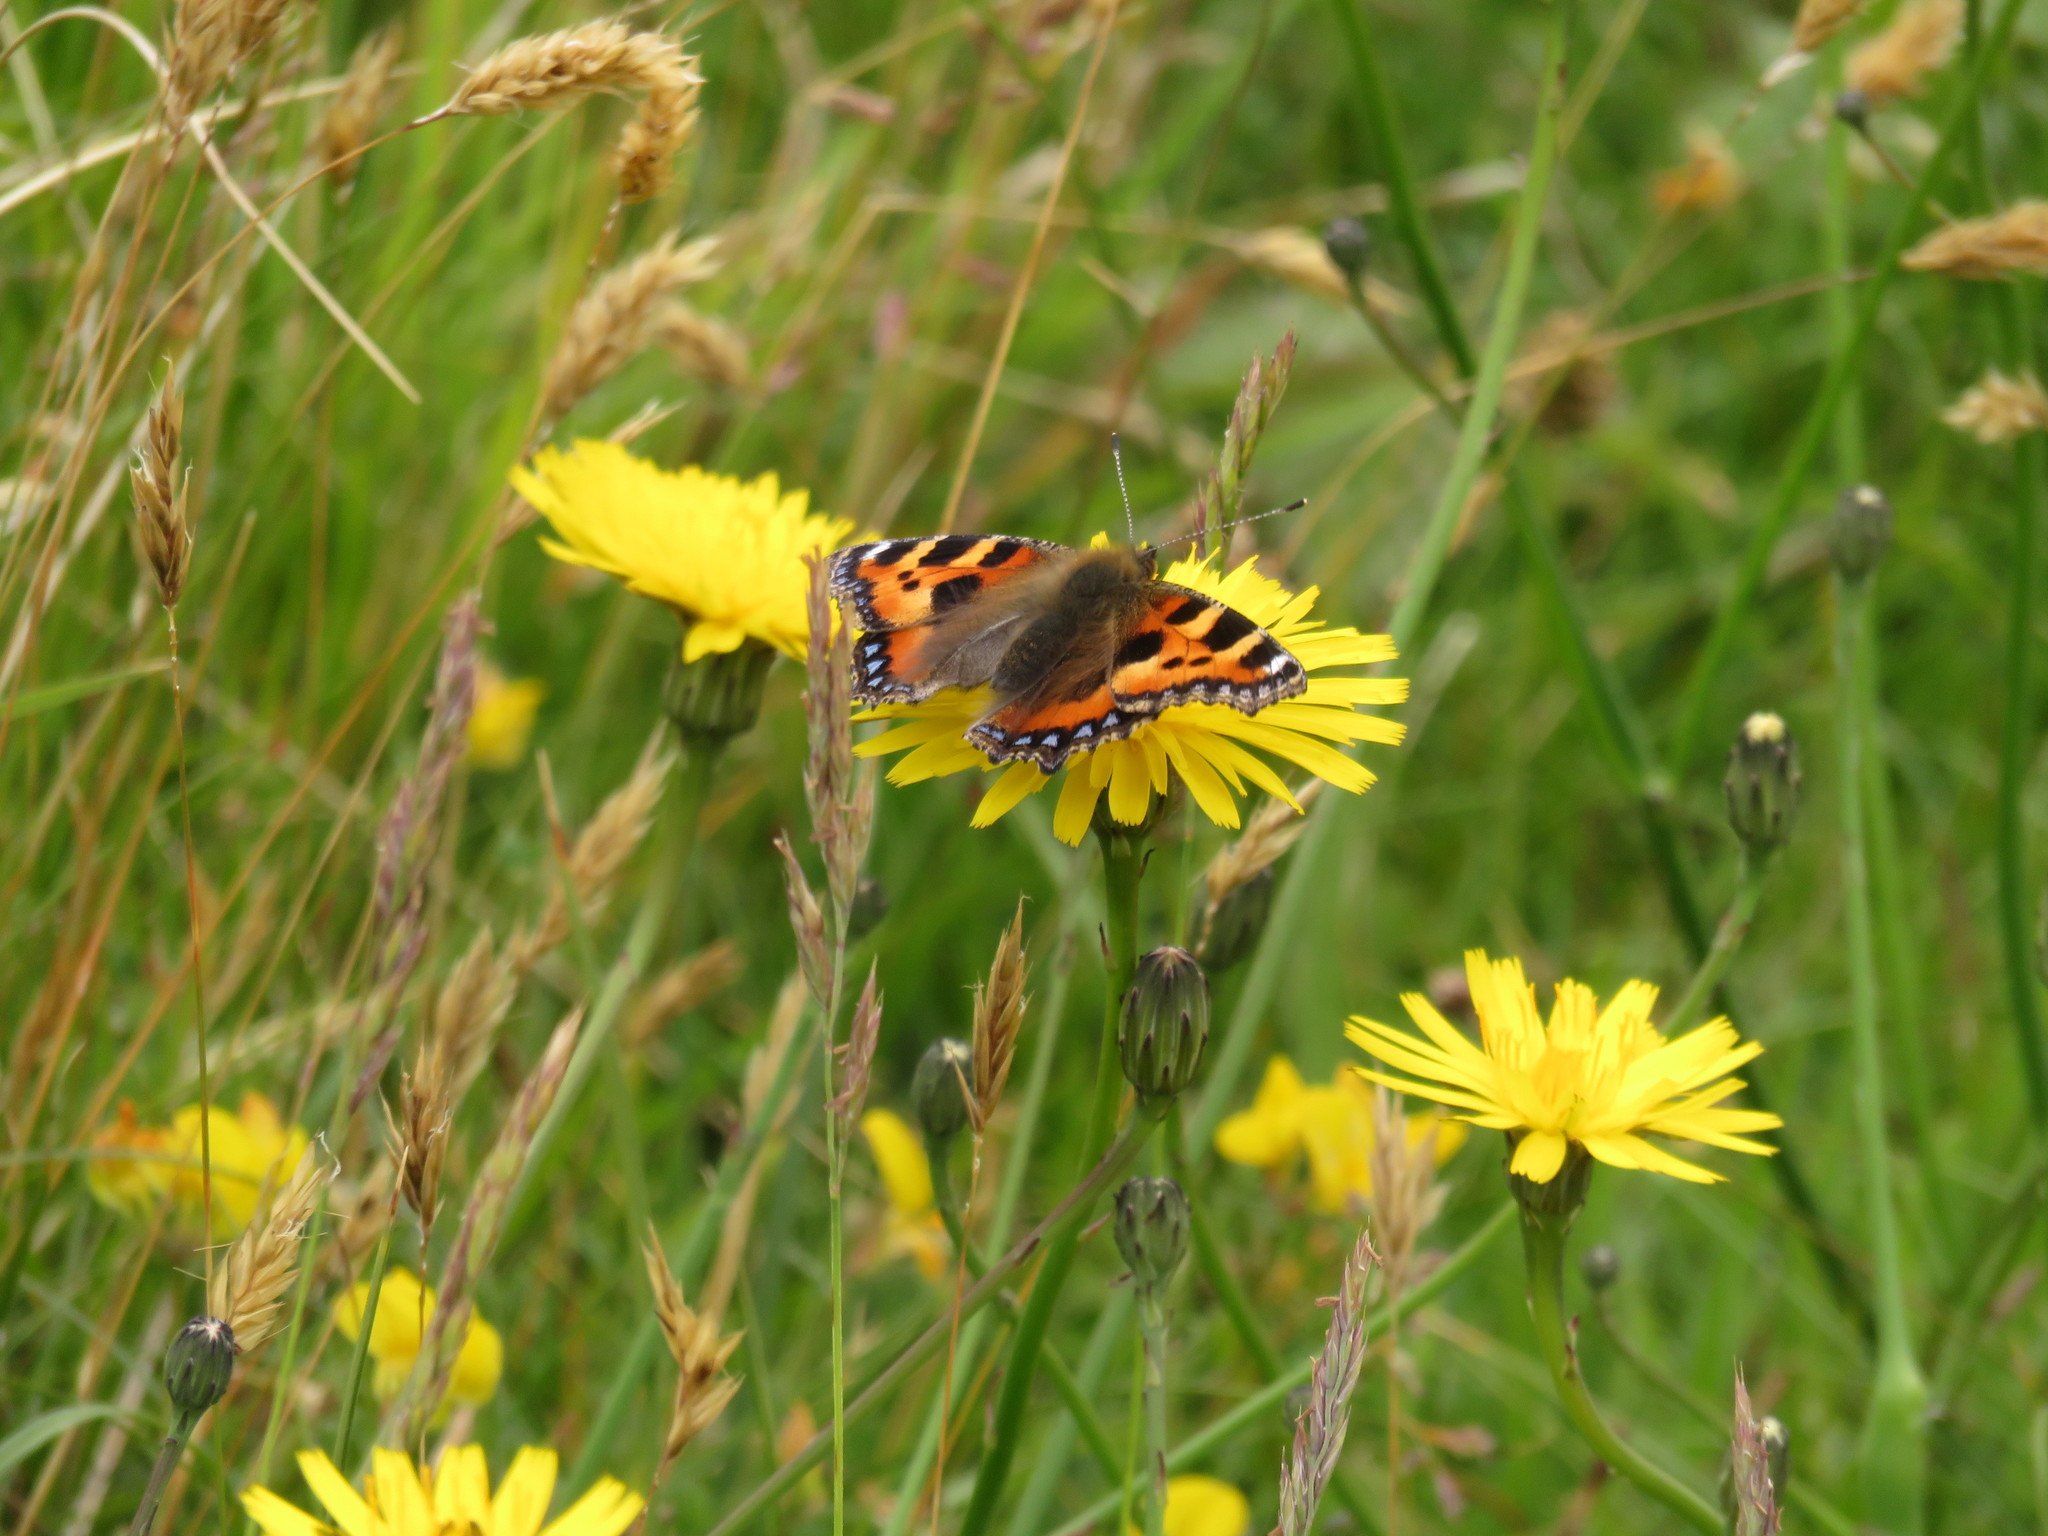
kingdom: Animalia
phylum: Arthropoda
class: Insecta
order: Lepidoptera
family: Nymphalidae
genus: Aglais
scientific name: Aglais urticae
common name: Small tortoiseshell
